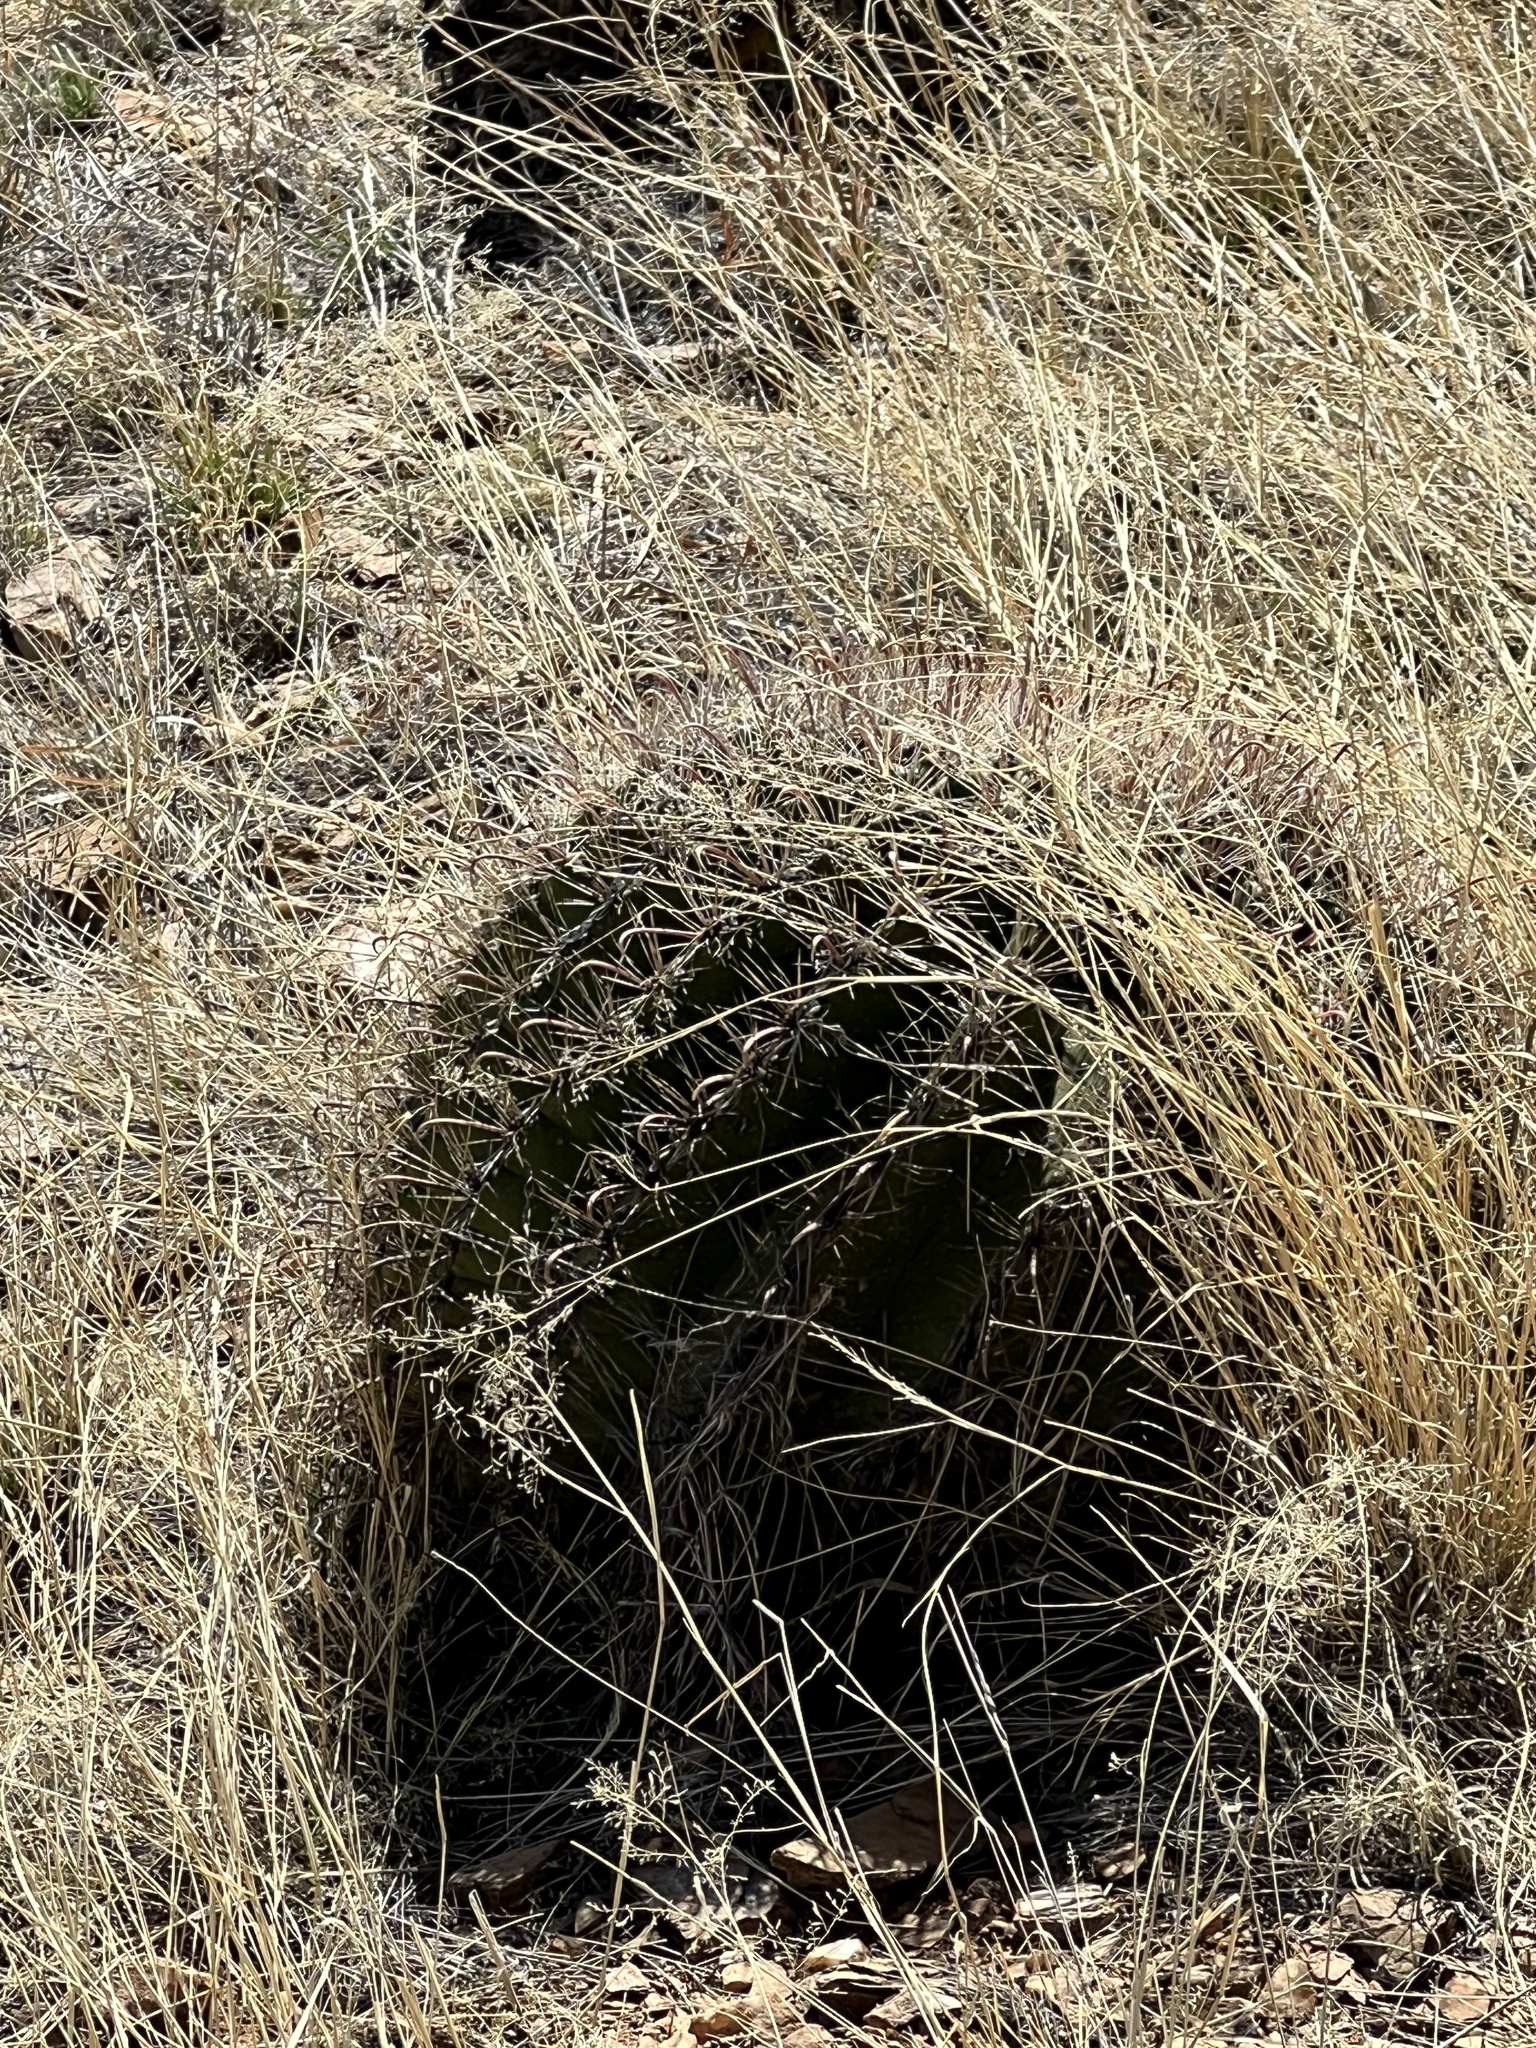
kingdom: Plantae
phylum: Tracheophyta
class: Magnoliopsida
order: Caryophyllales
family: Cactaceae
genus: Ferocactus
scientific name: Ferocactus wislizeni
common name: Candy barrel cactus
